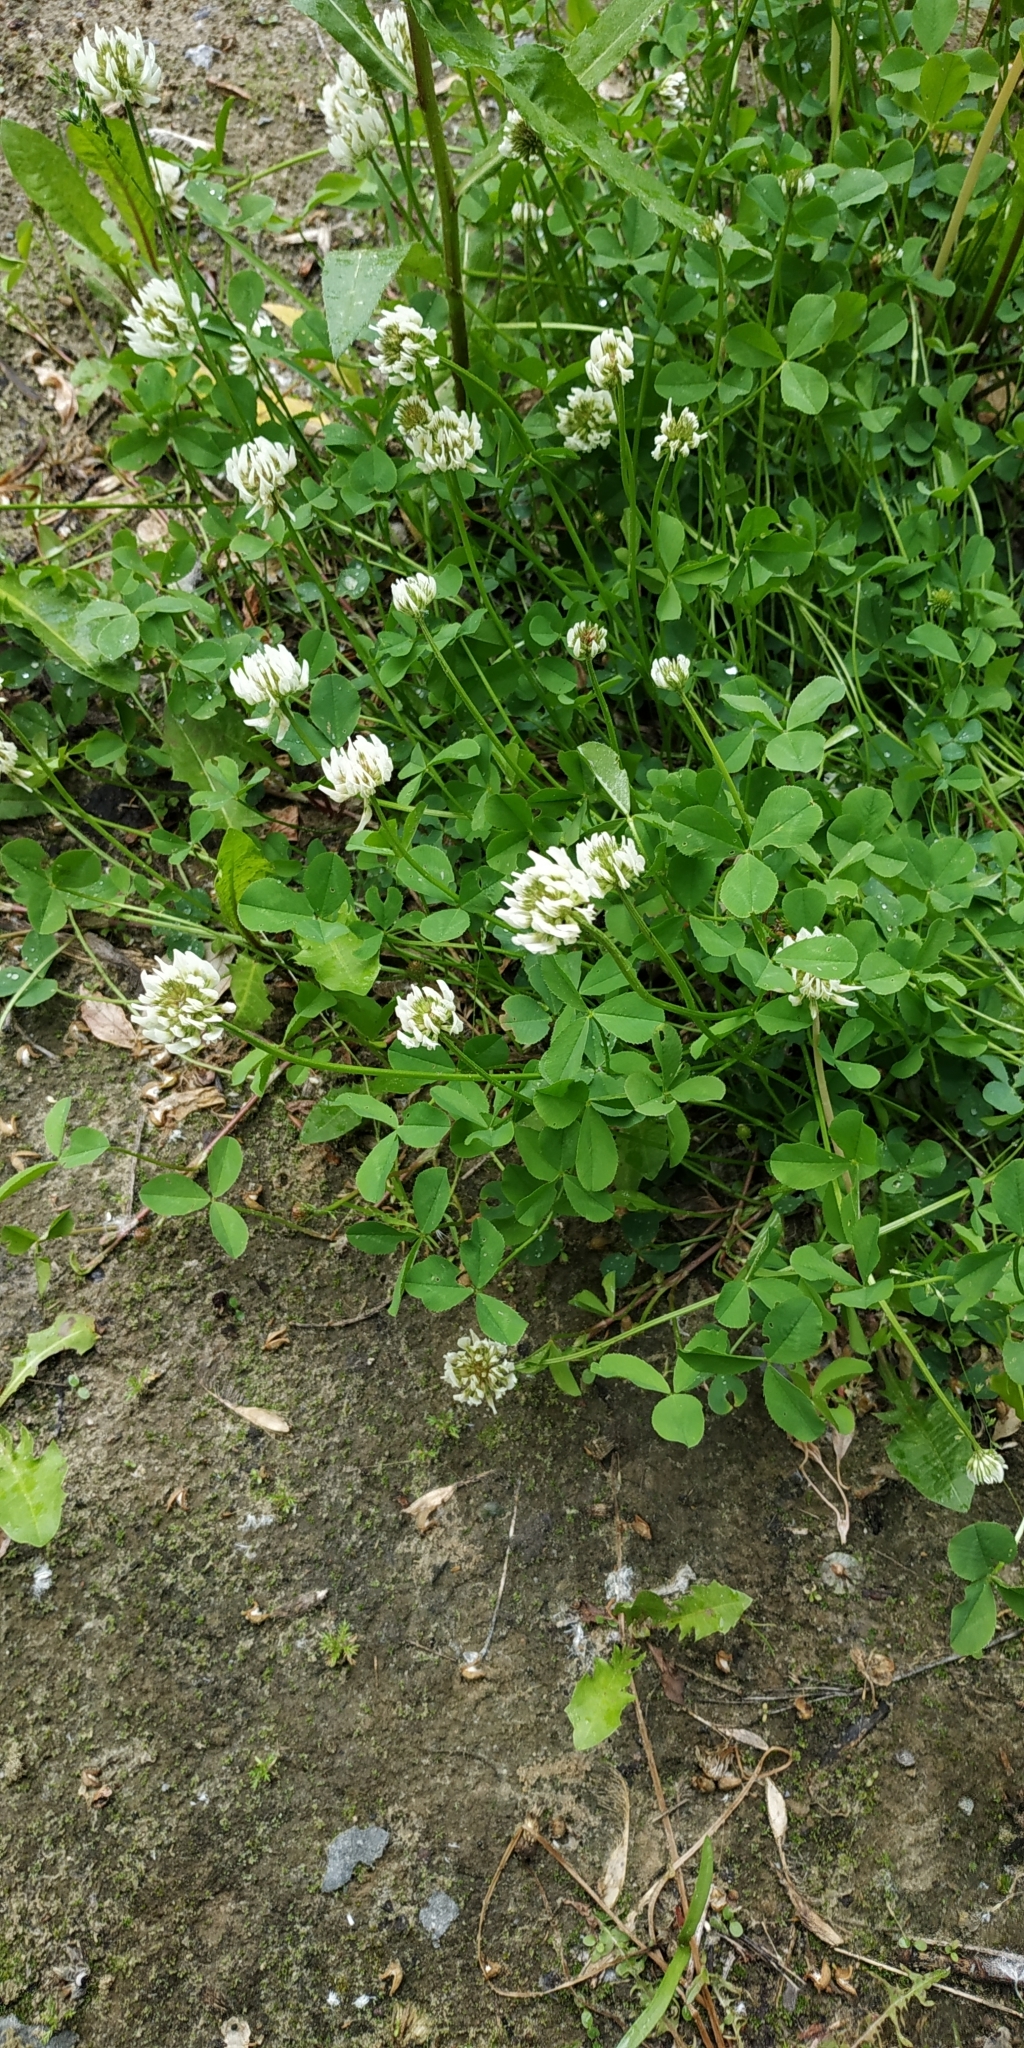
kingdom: Plantae
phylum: Tracheophyta
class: Magnoliopsida
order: Fabales
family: Fabaceae
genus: Trifolium
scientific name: Trifolium repens
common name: White clover
